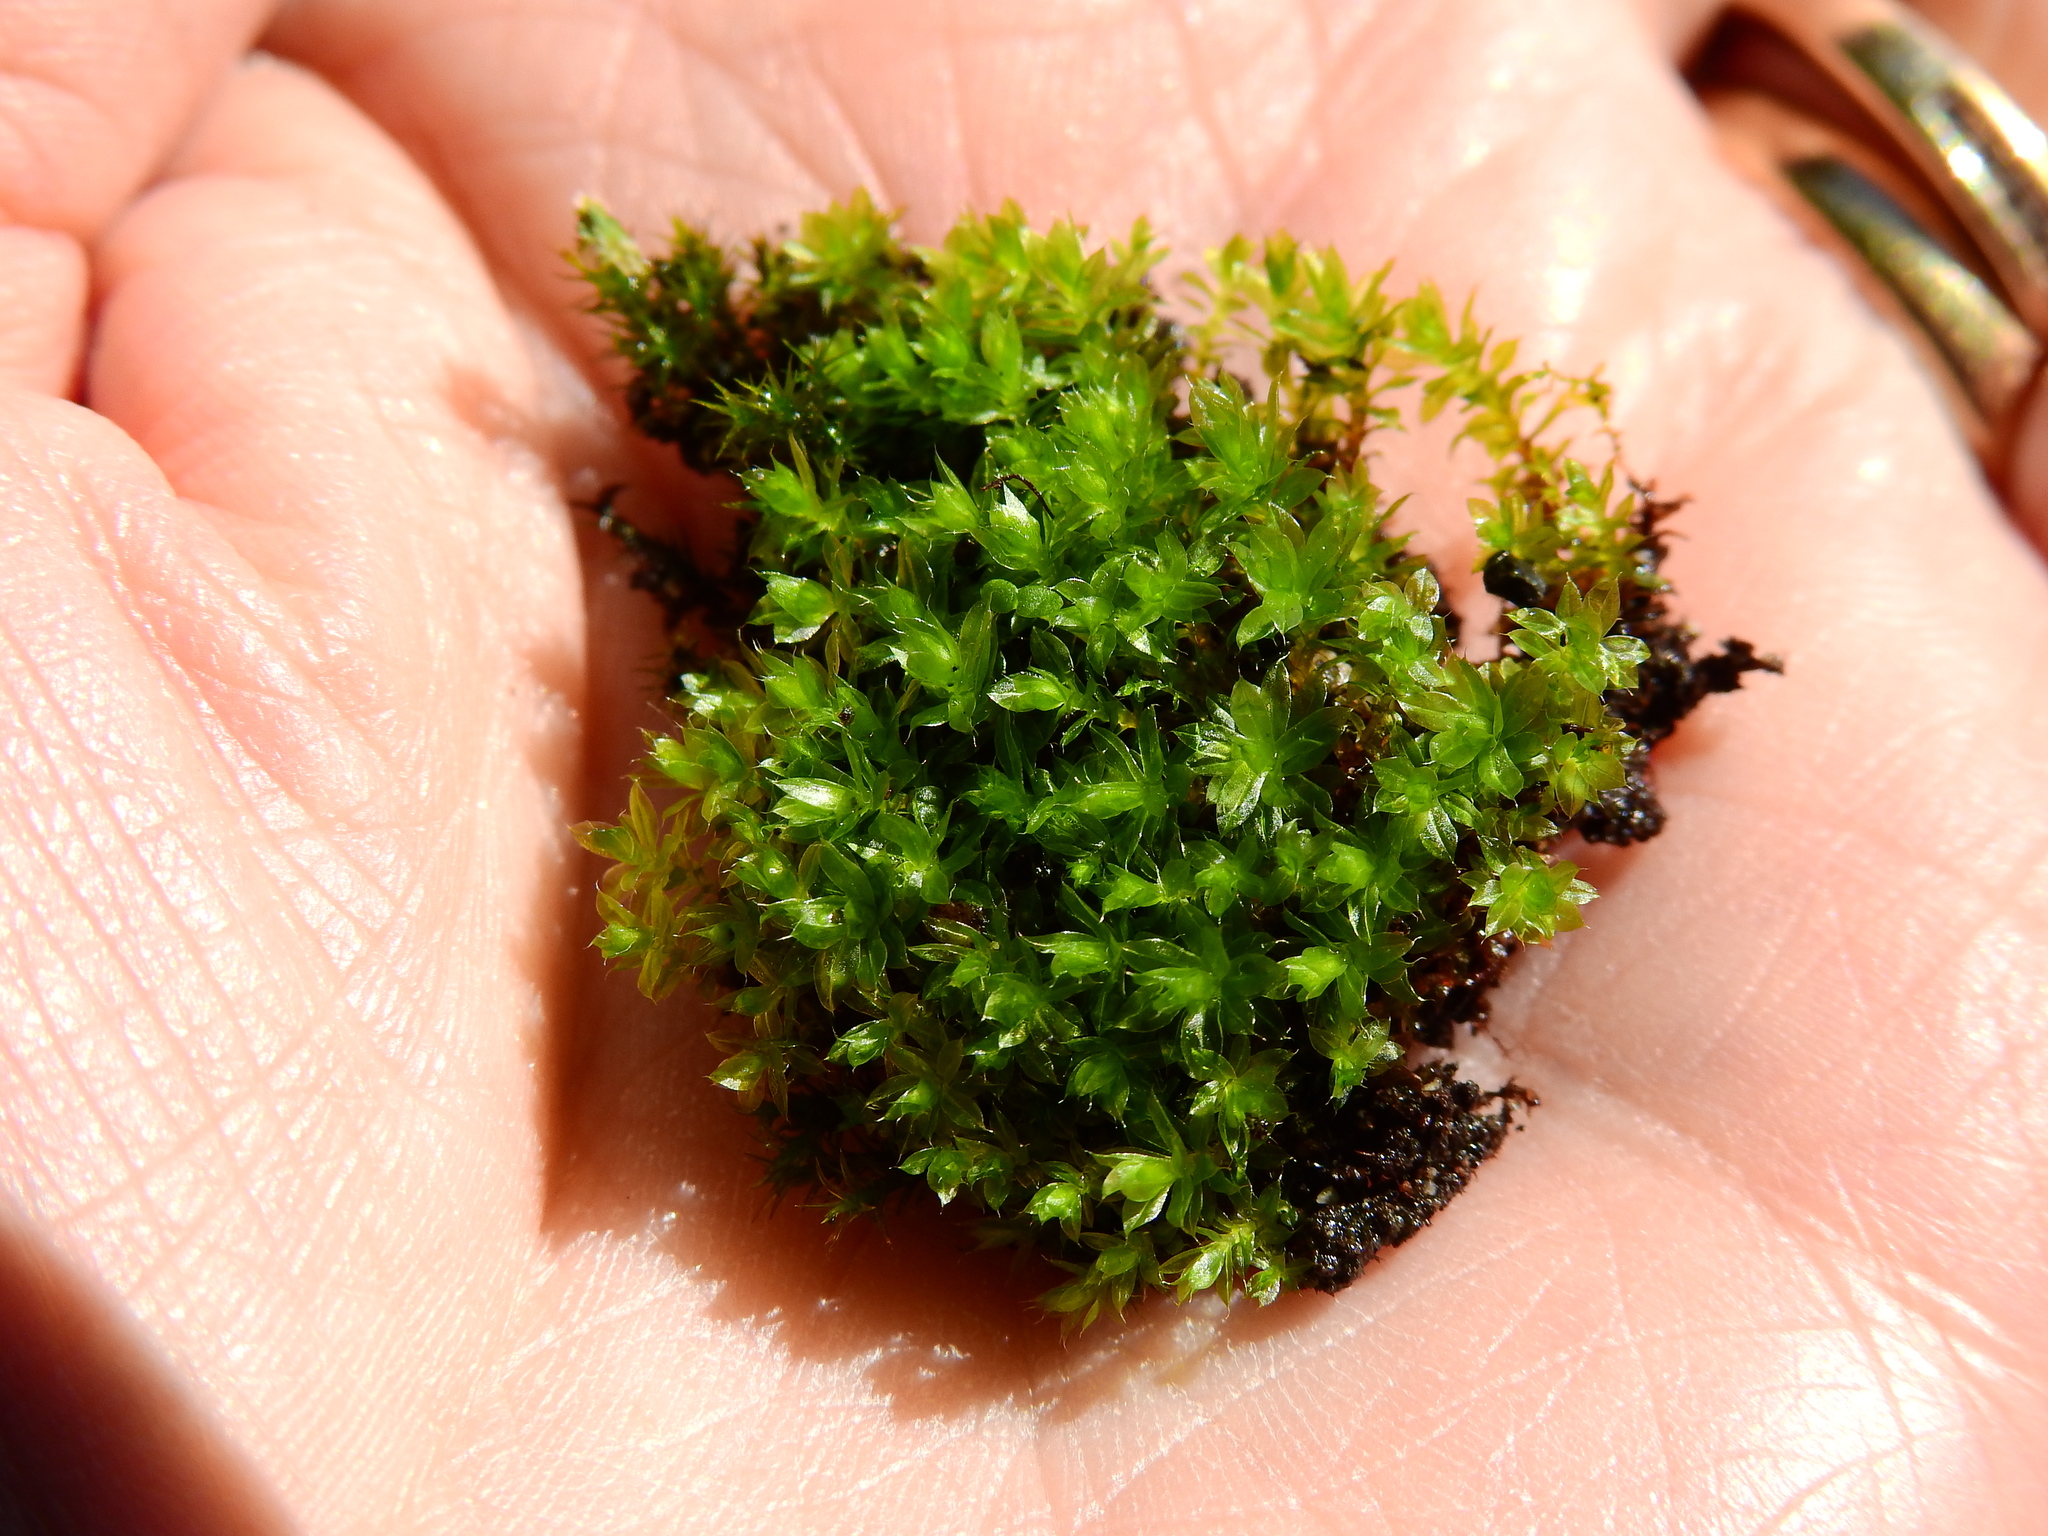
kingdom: Plantae
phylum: Bryophyta
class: Bryopsida
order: Bryales
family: Bryaceae
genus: Rosulabryum
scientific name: Rosulabryum capillare
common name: Capillary thread-moss
